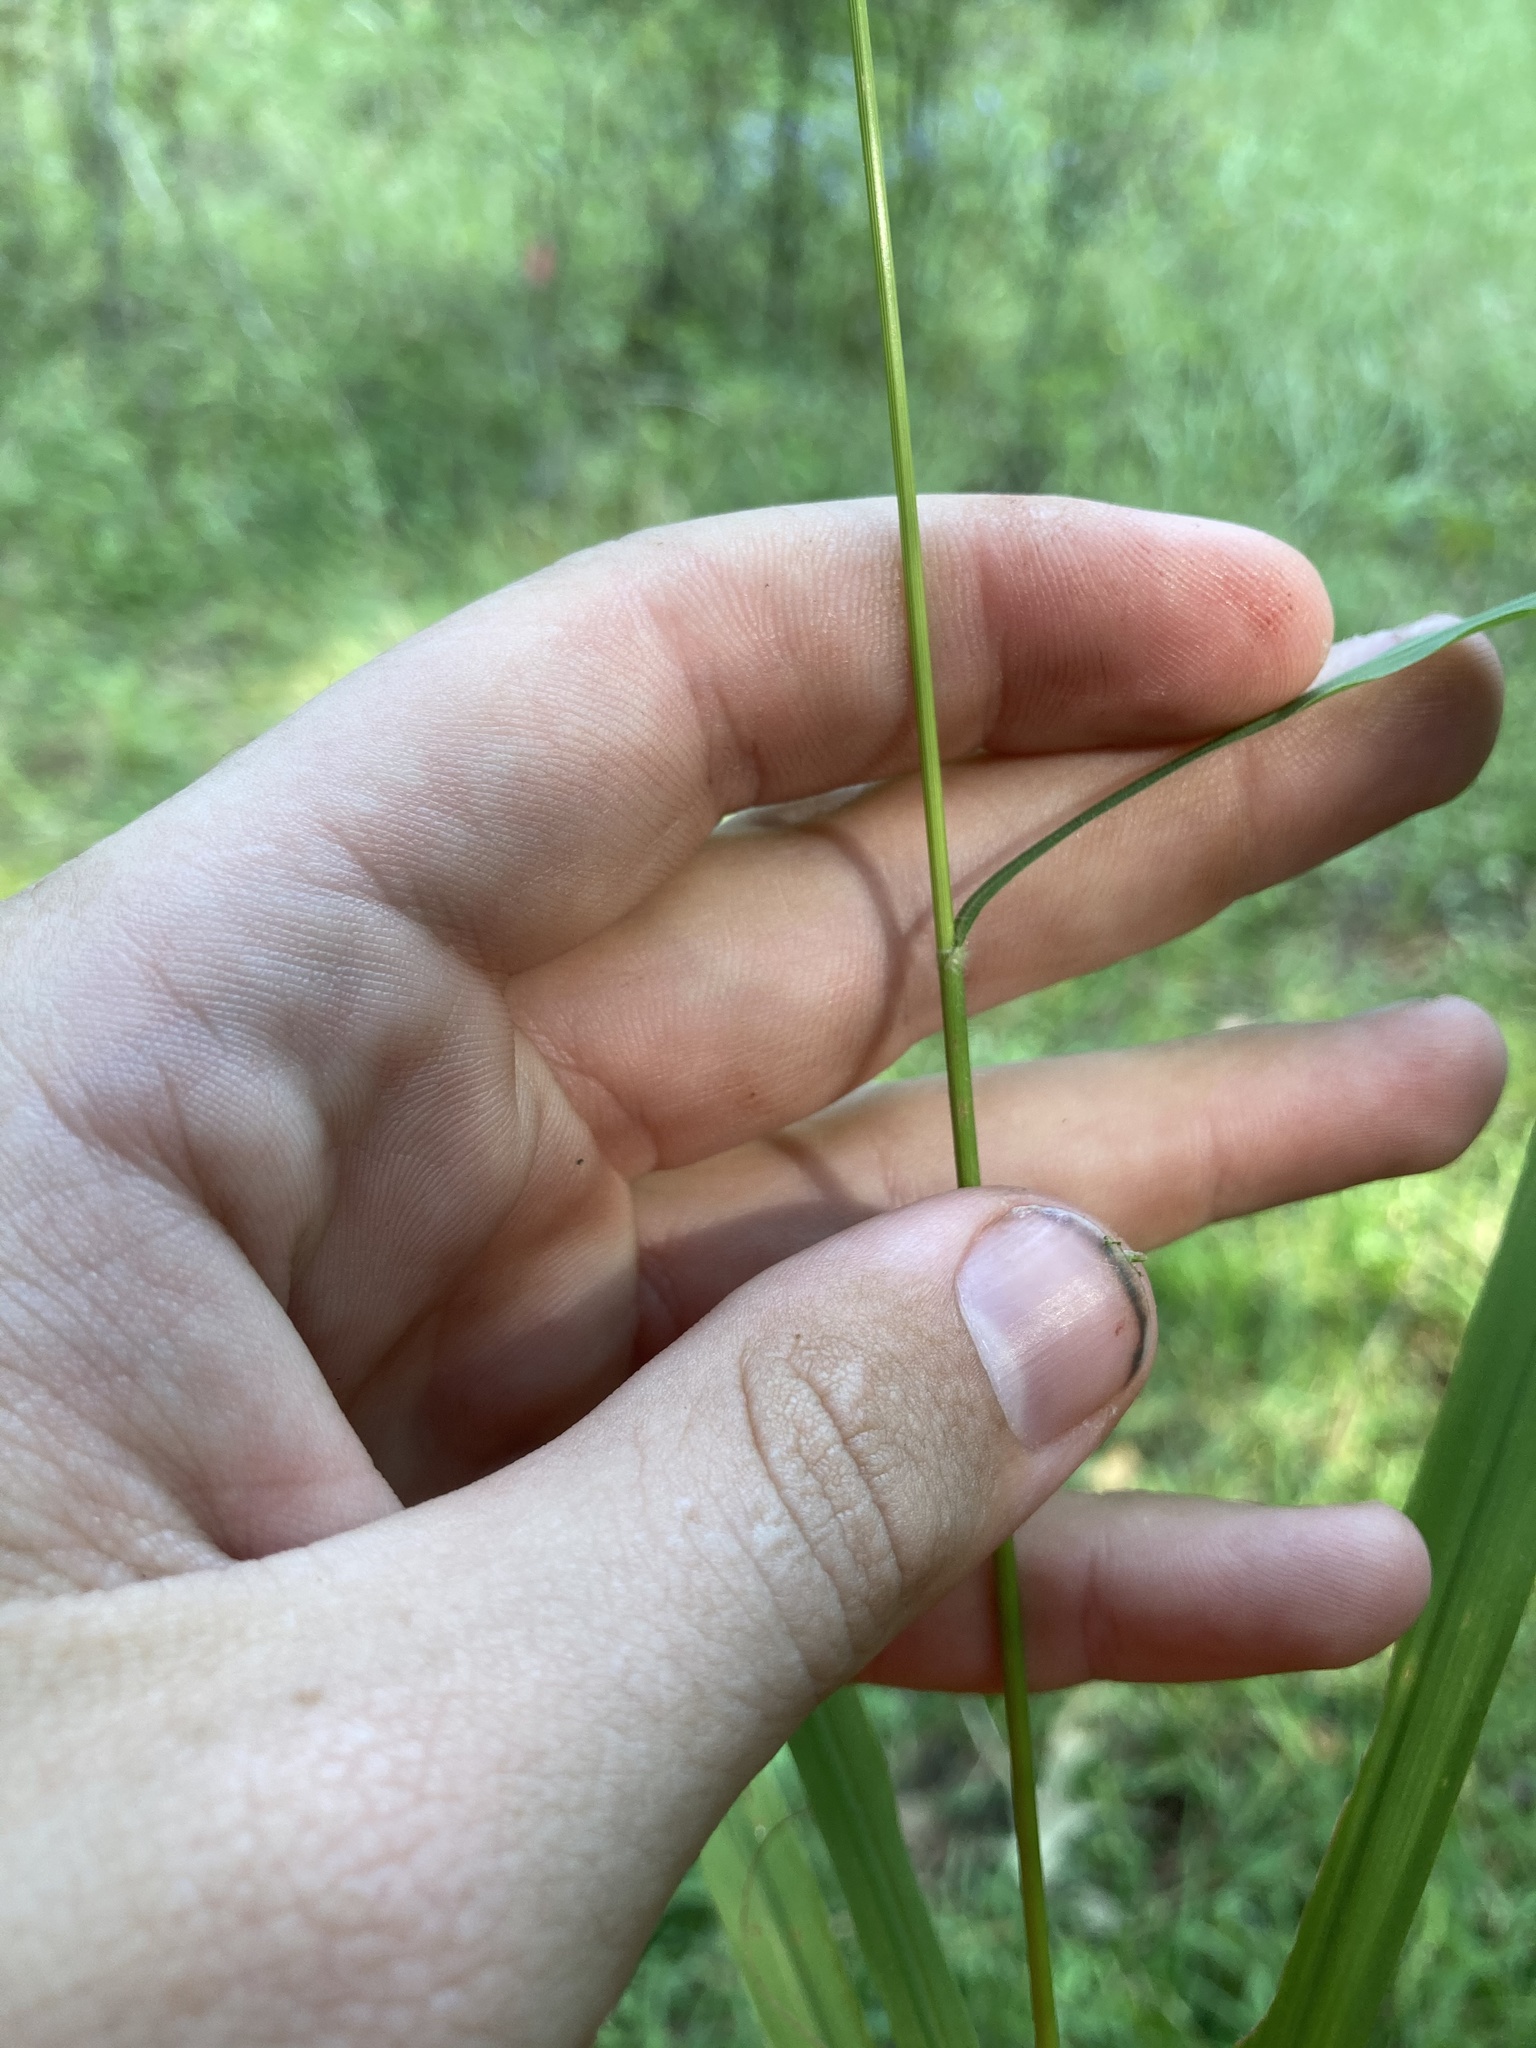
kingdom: Plantae
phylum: Tracheophyta
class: Liliopsida
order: Poales
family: Poaceae
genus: Chasmanthium
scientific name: Chasmanthium laxum
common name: Slender chasmanthium
